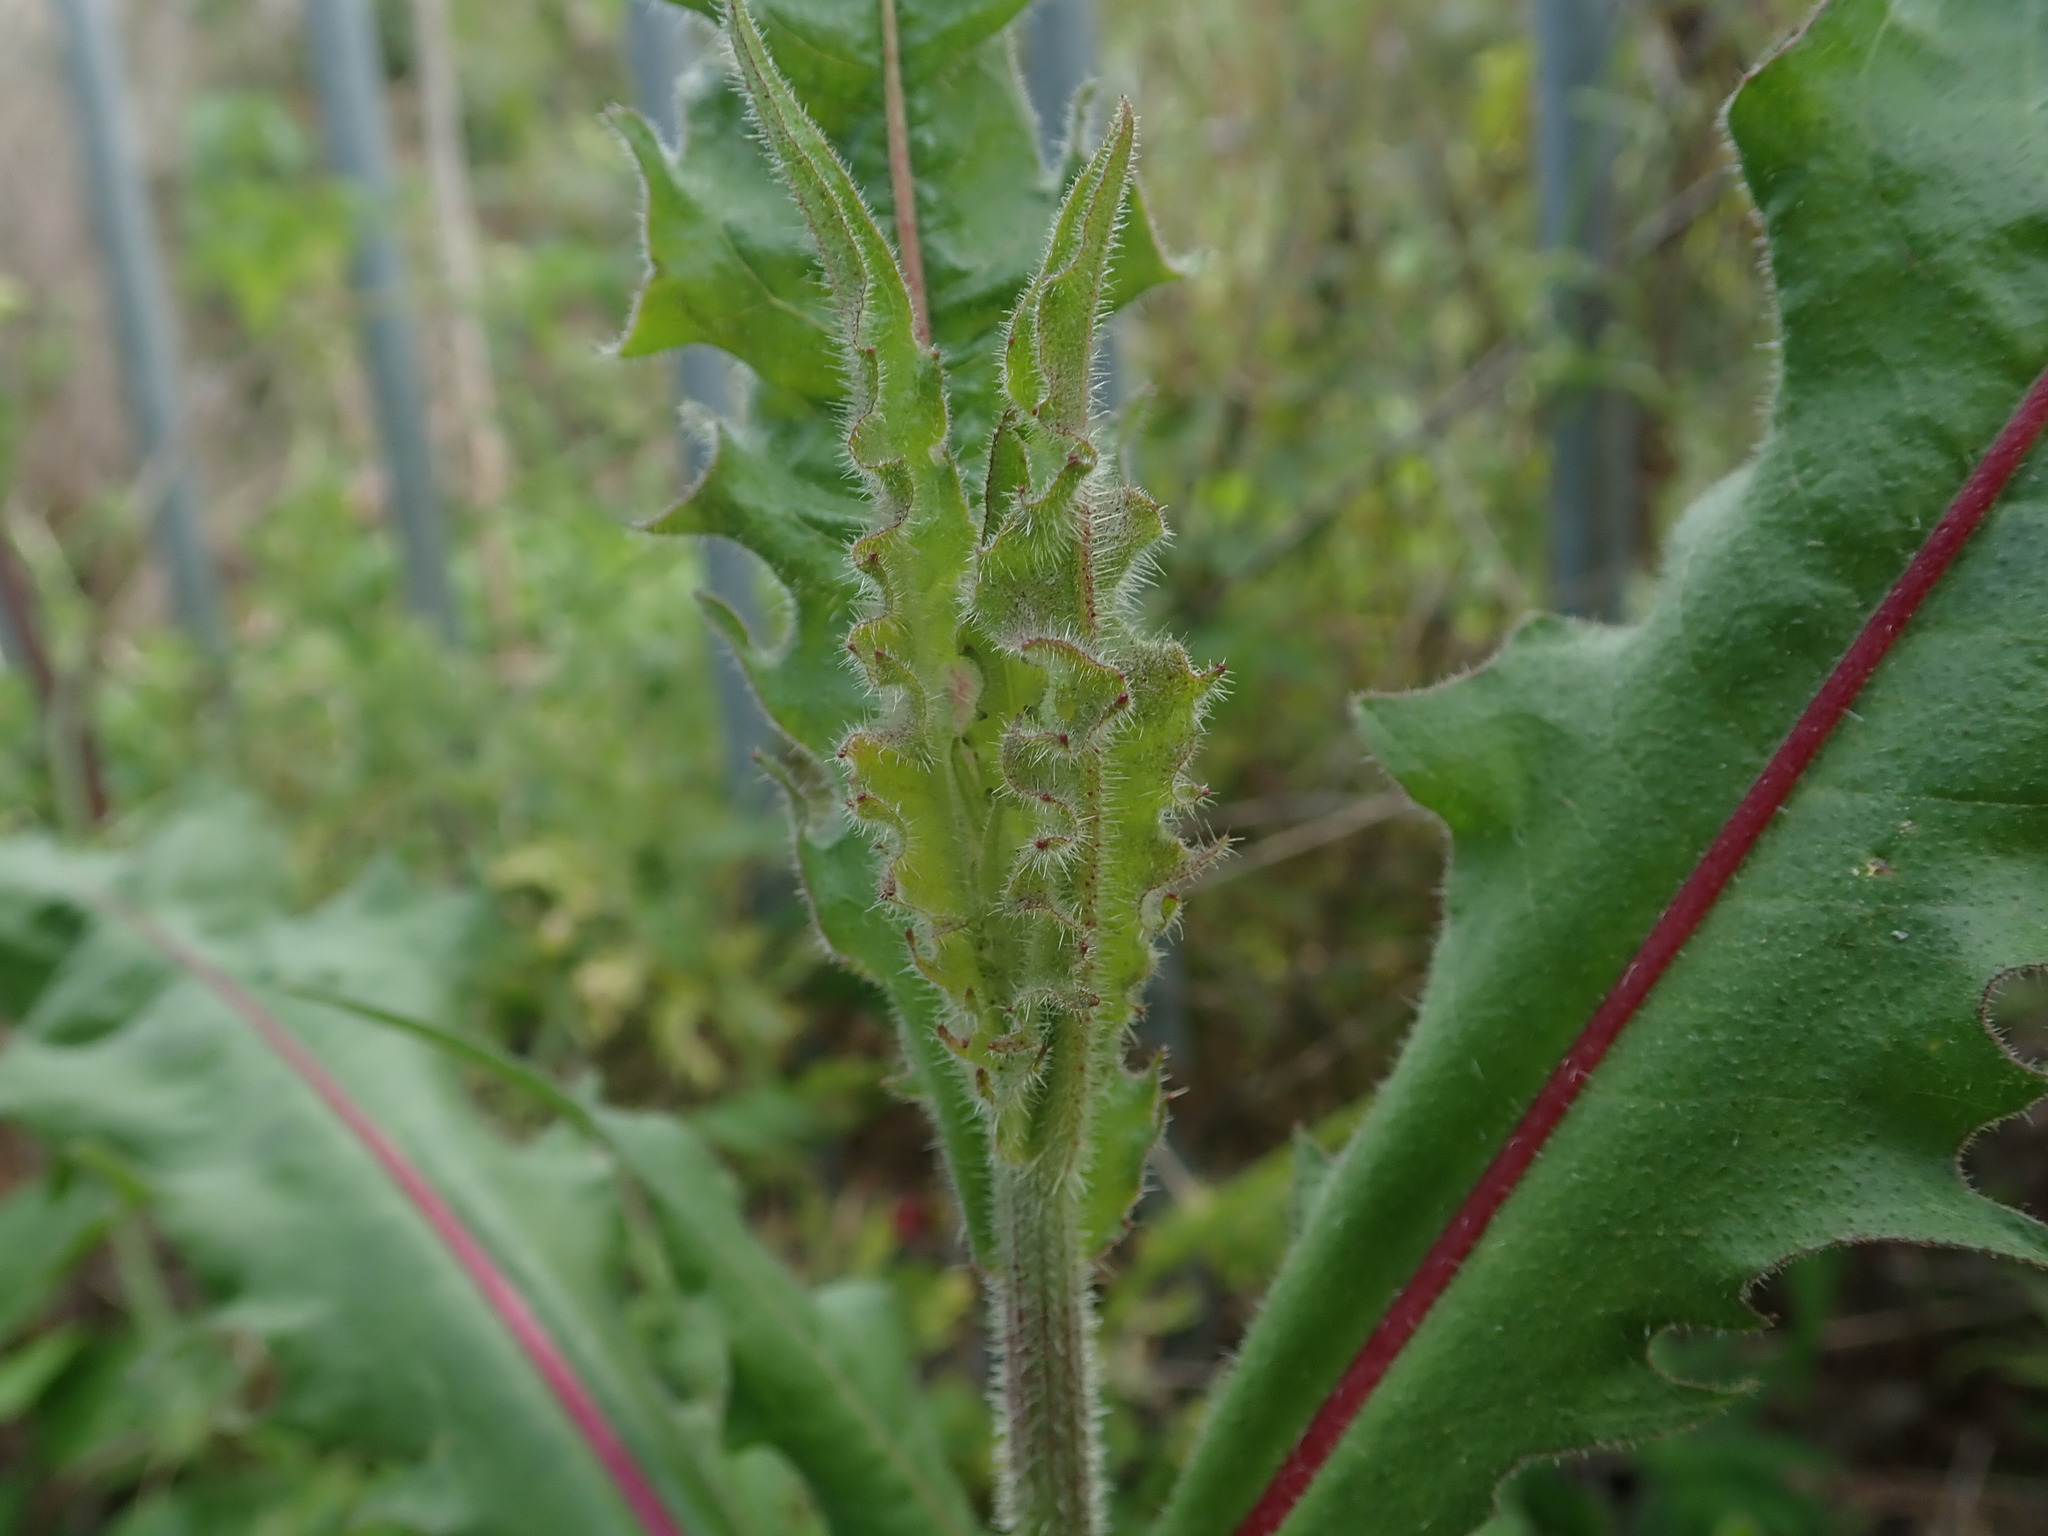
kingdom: Plantae
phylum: Tracheophyta
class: Magnoliopsida
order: Asterales
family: Asteraceae
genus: Picris
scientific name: Picris hieracioides
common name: Hawkweed oxtongue
